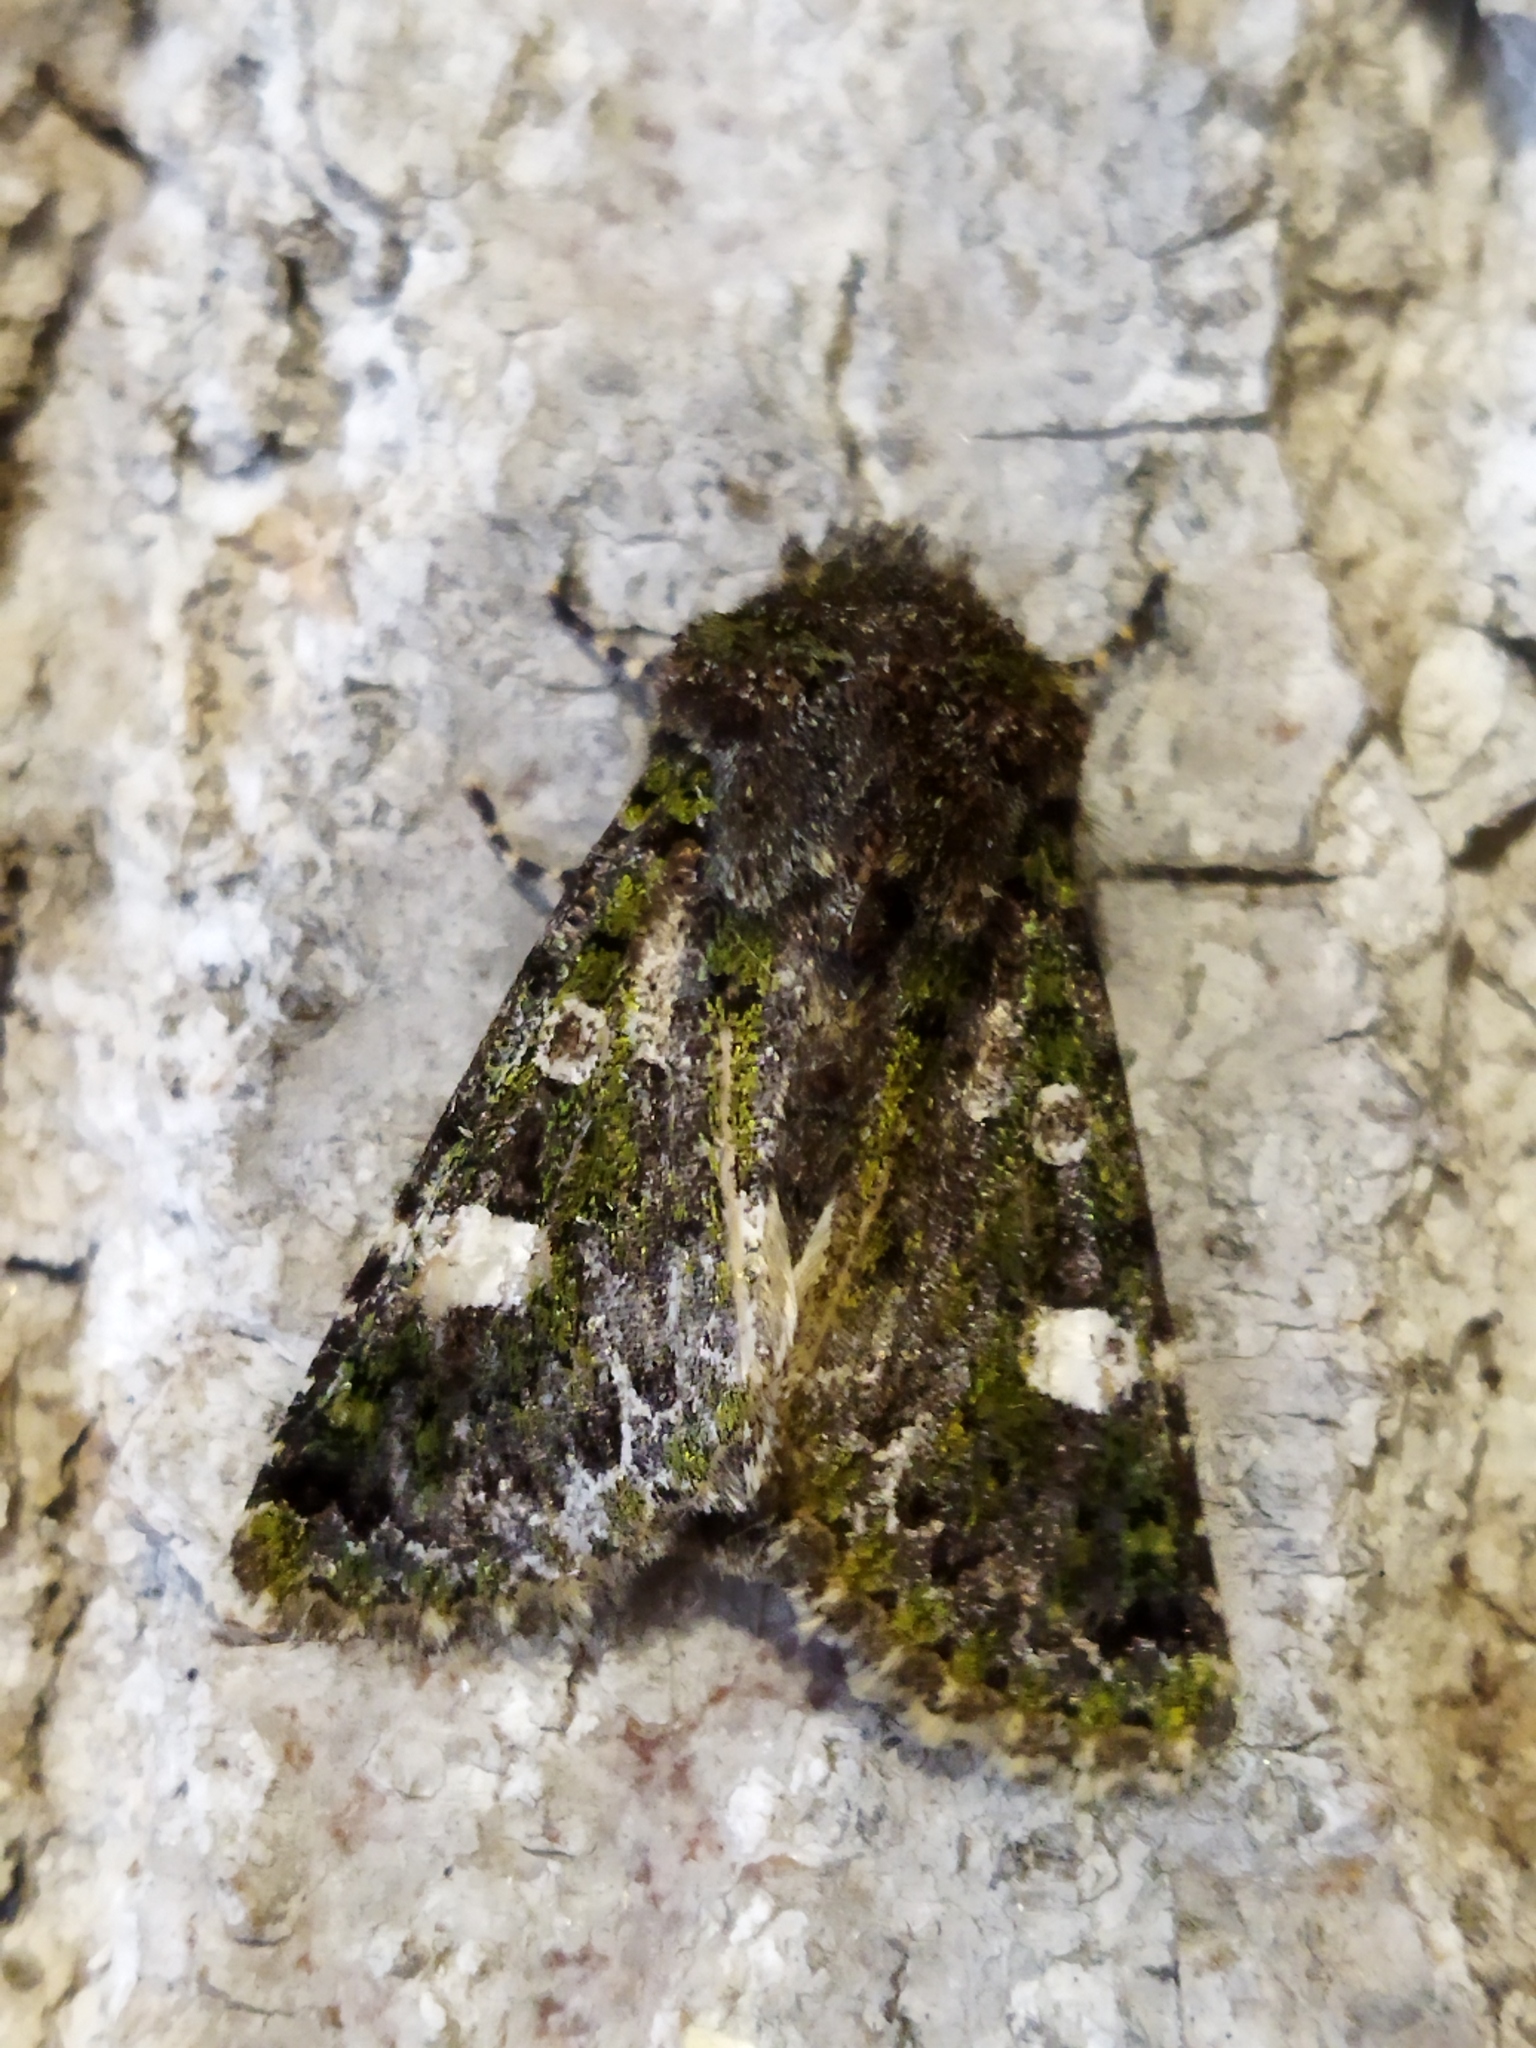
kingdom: Animalia
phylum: Arthropoda
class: Insecta
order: Lepidoptera
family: Noctuidae
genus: Valeria
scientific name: Valeria oleagina
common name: Green-brindled dot
